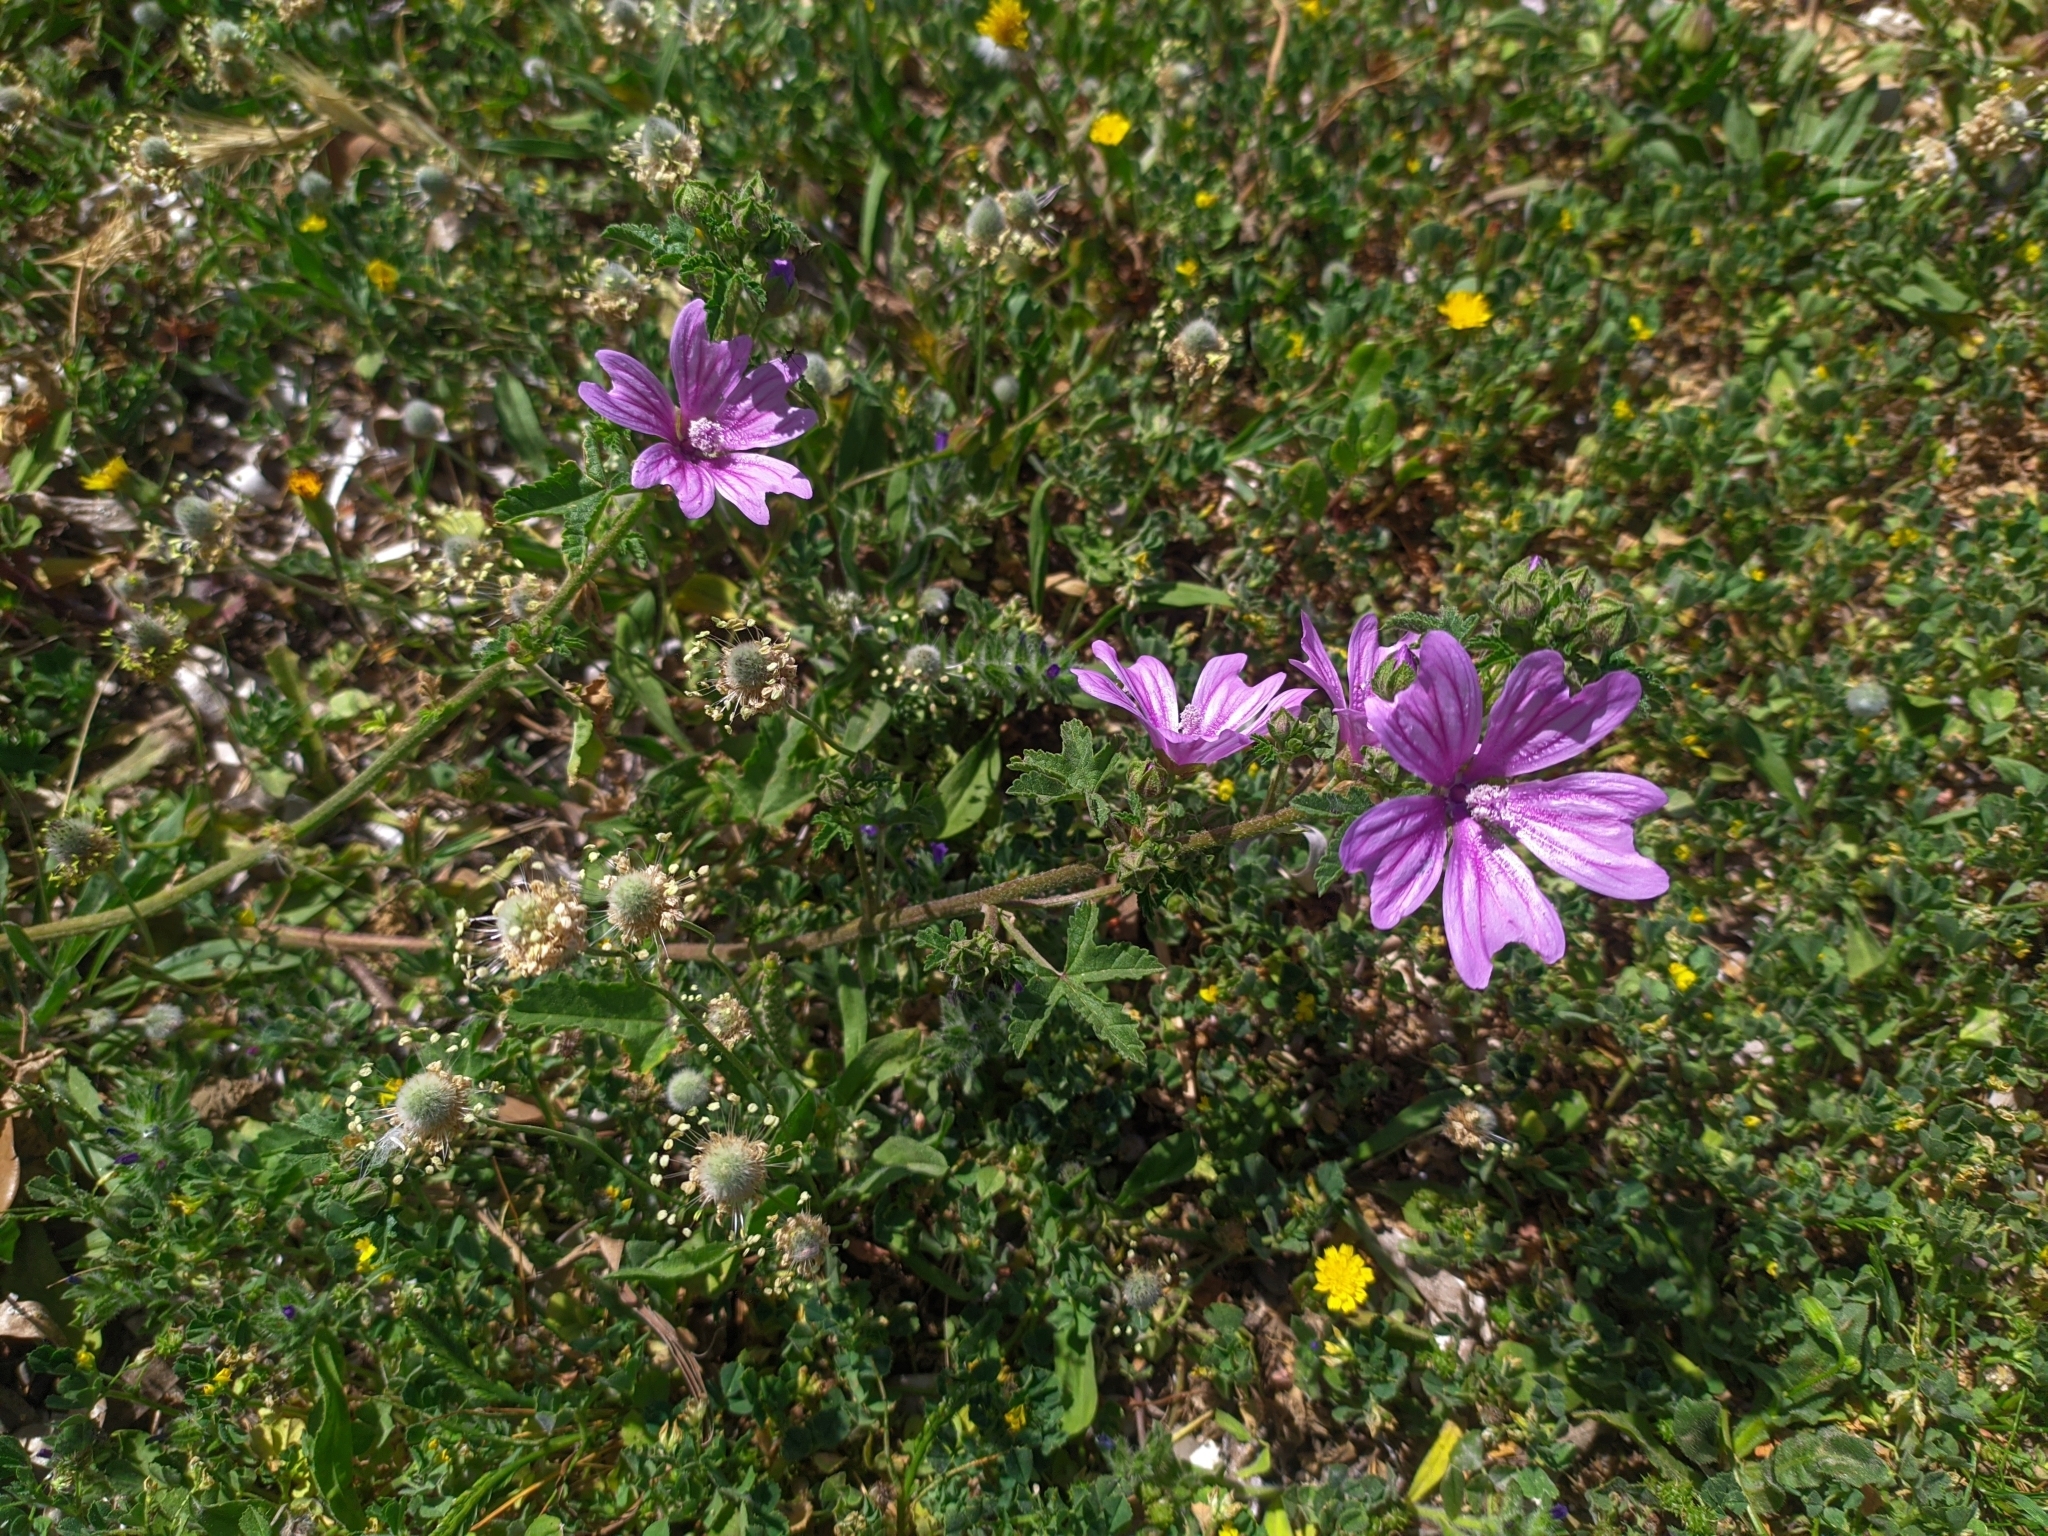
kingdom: Plantae
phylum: Tracheophyta
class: Magnoliopsida
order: Malvales
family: Malvaceae
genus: Malva
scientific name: Malva sylvestris
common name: Common mallow
